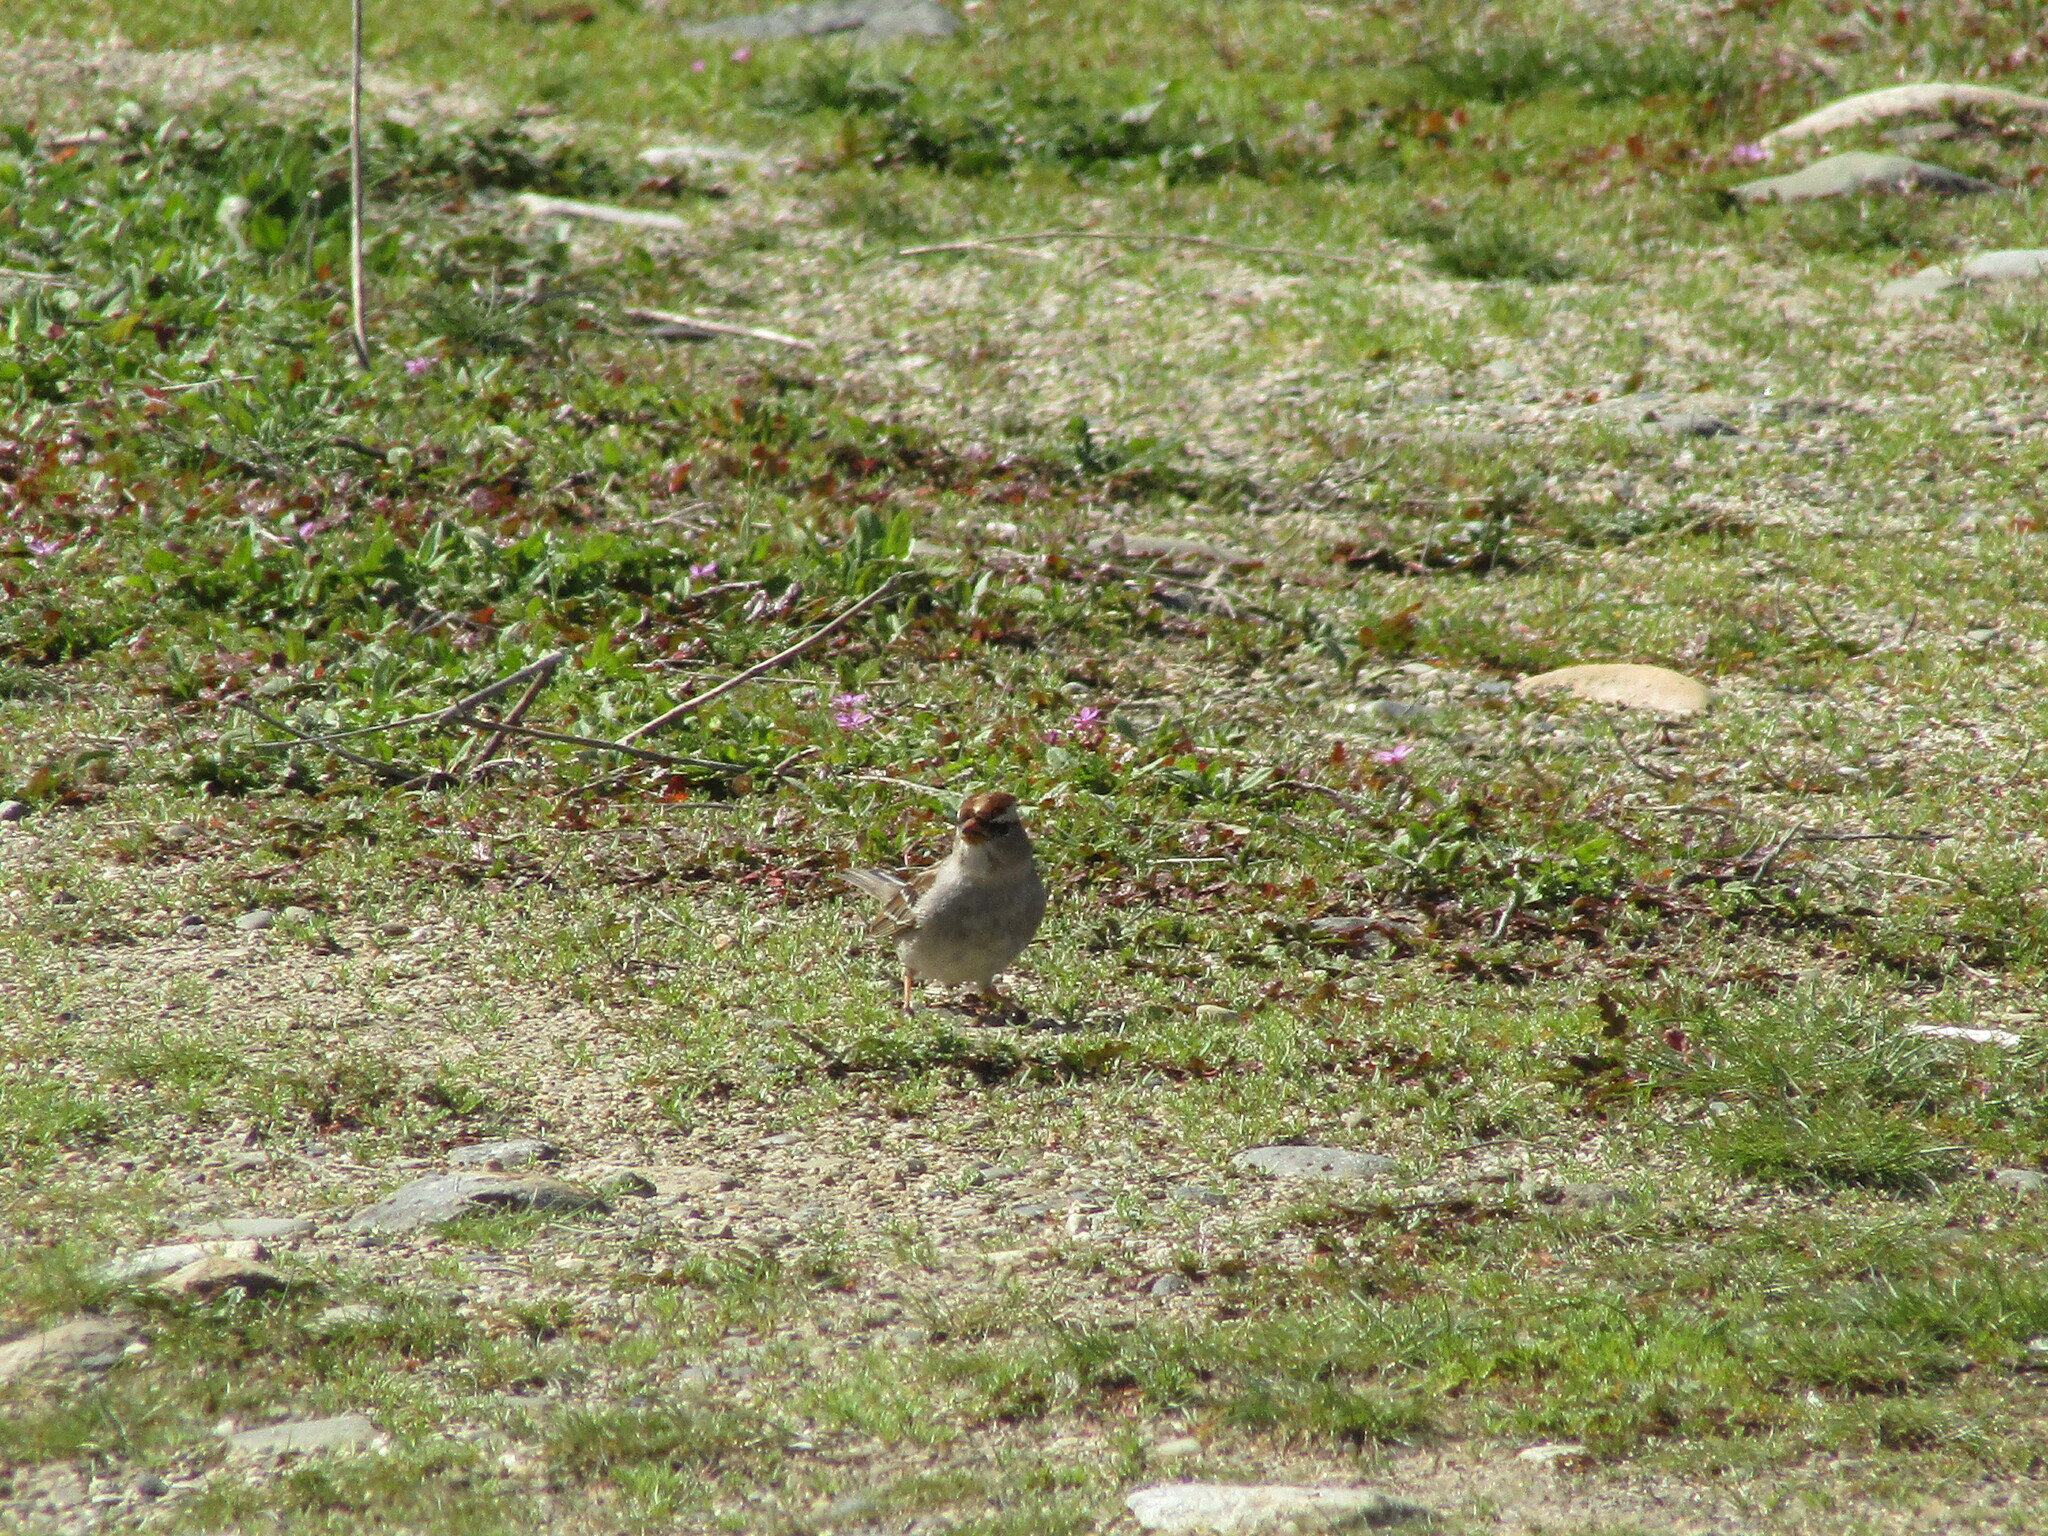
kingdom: Animalia
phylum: Chordata
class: Aves
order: Passeriformes
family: Passerellidae
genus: Zonotrichia
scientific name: Zonotrichia leucophrys
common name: White-crowned sparrow
